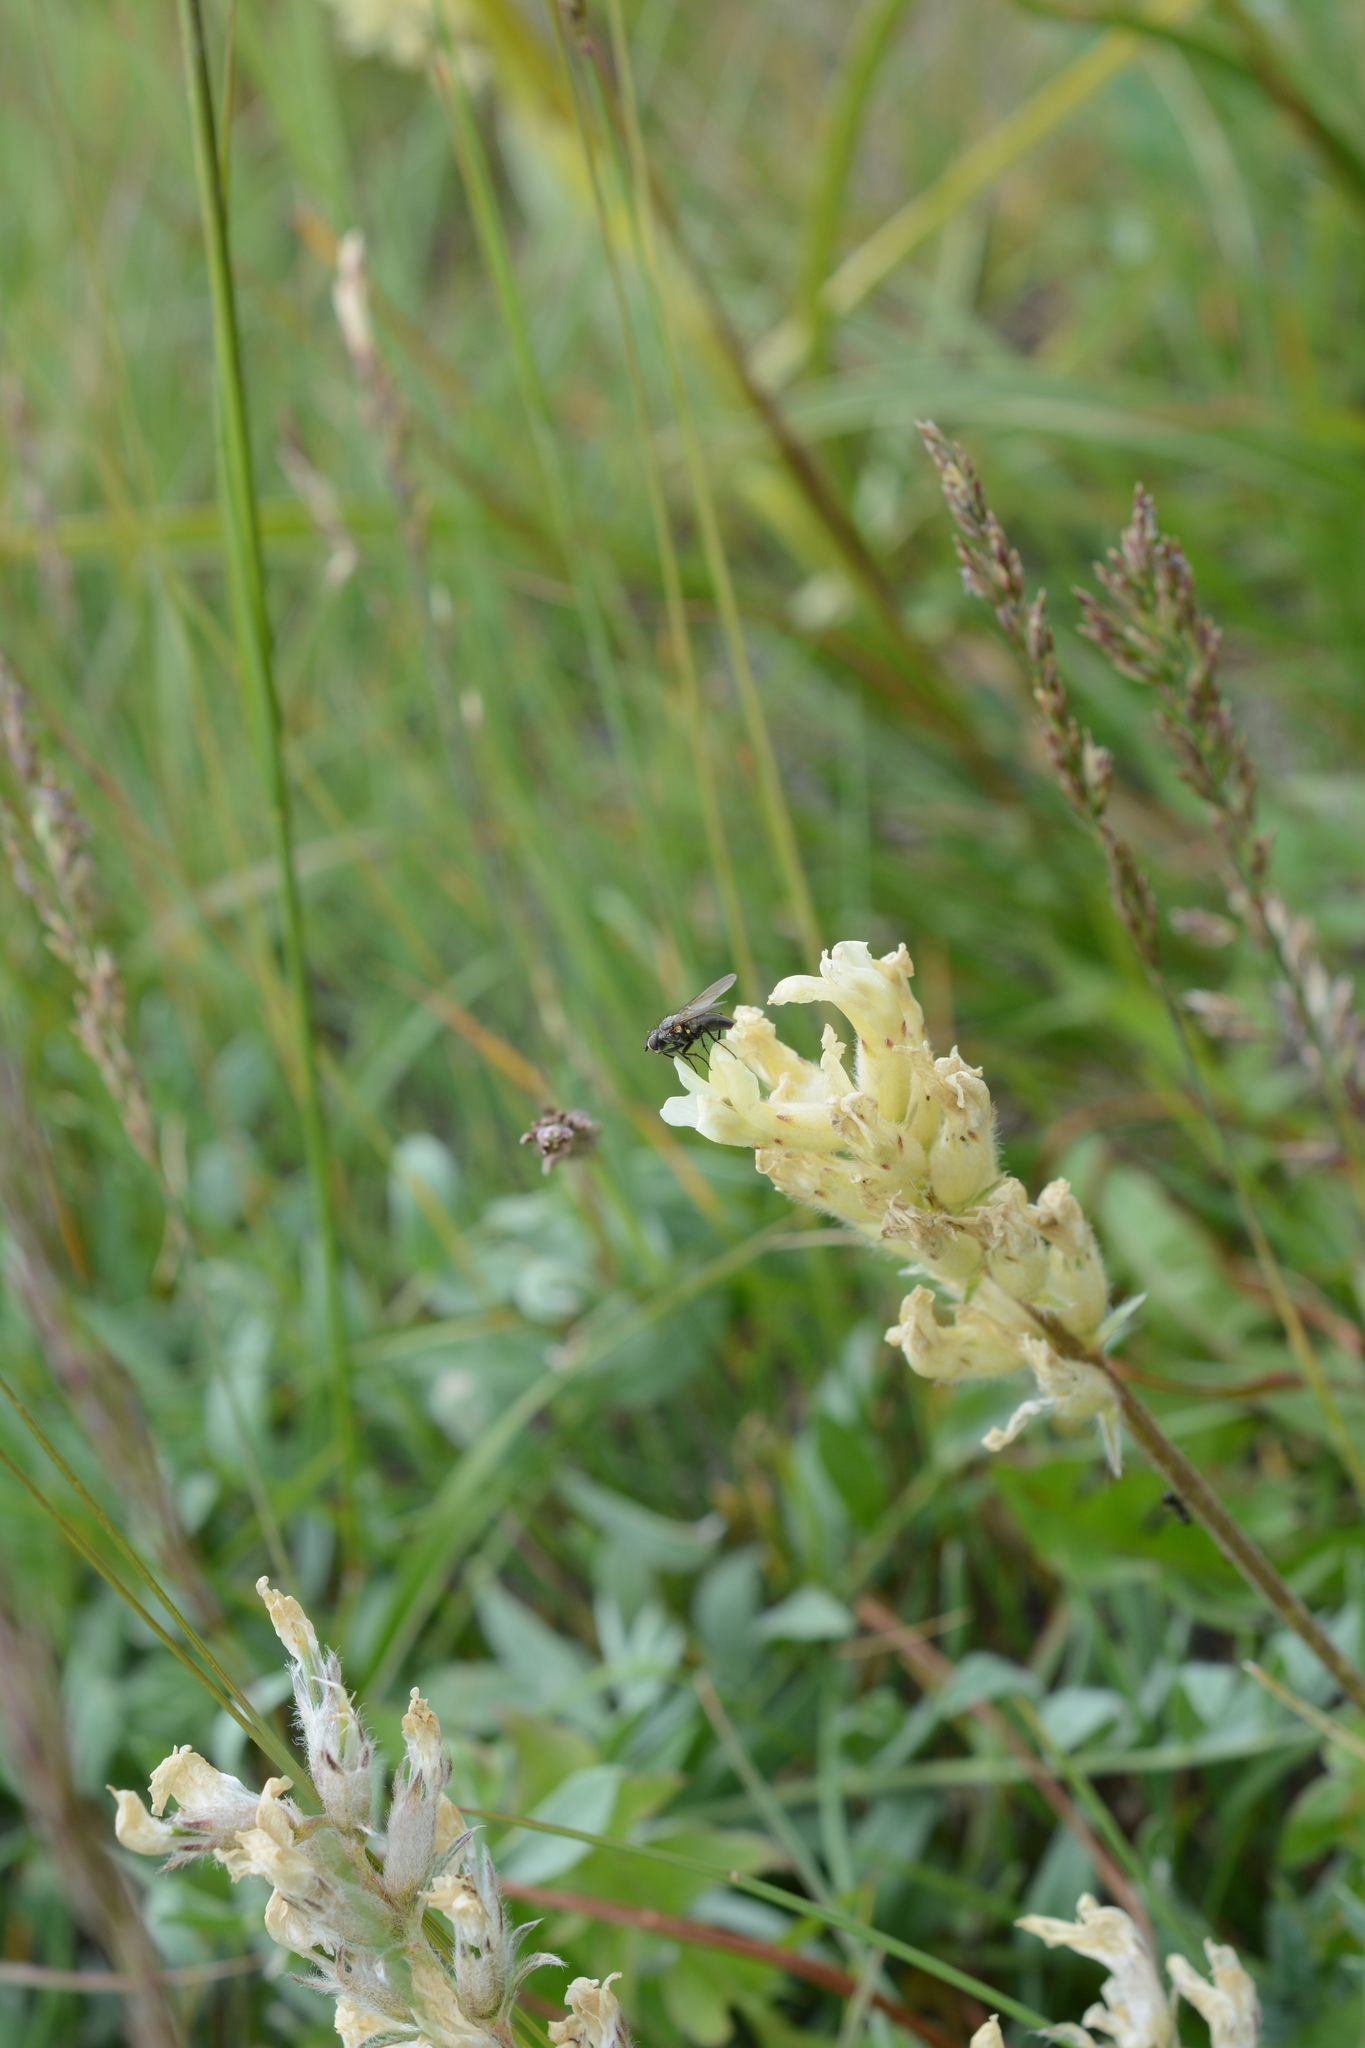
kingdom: Plantae
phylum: Tracheophyta
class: Magnoliopsida
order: Fabales
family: Fabaceae
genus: Oxytropis
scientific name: Oxytropis campestris
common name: Field locoweed
